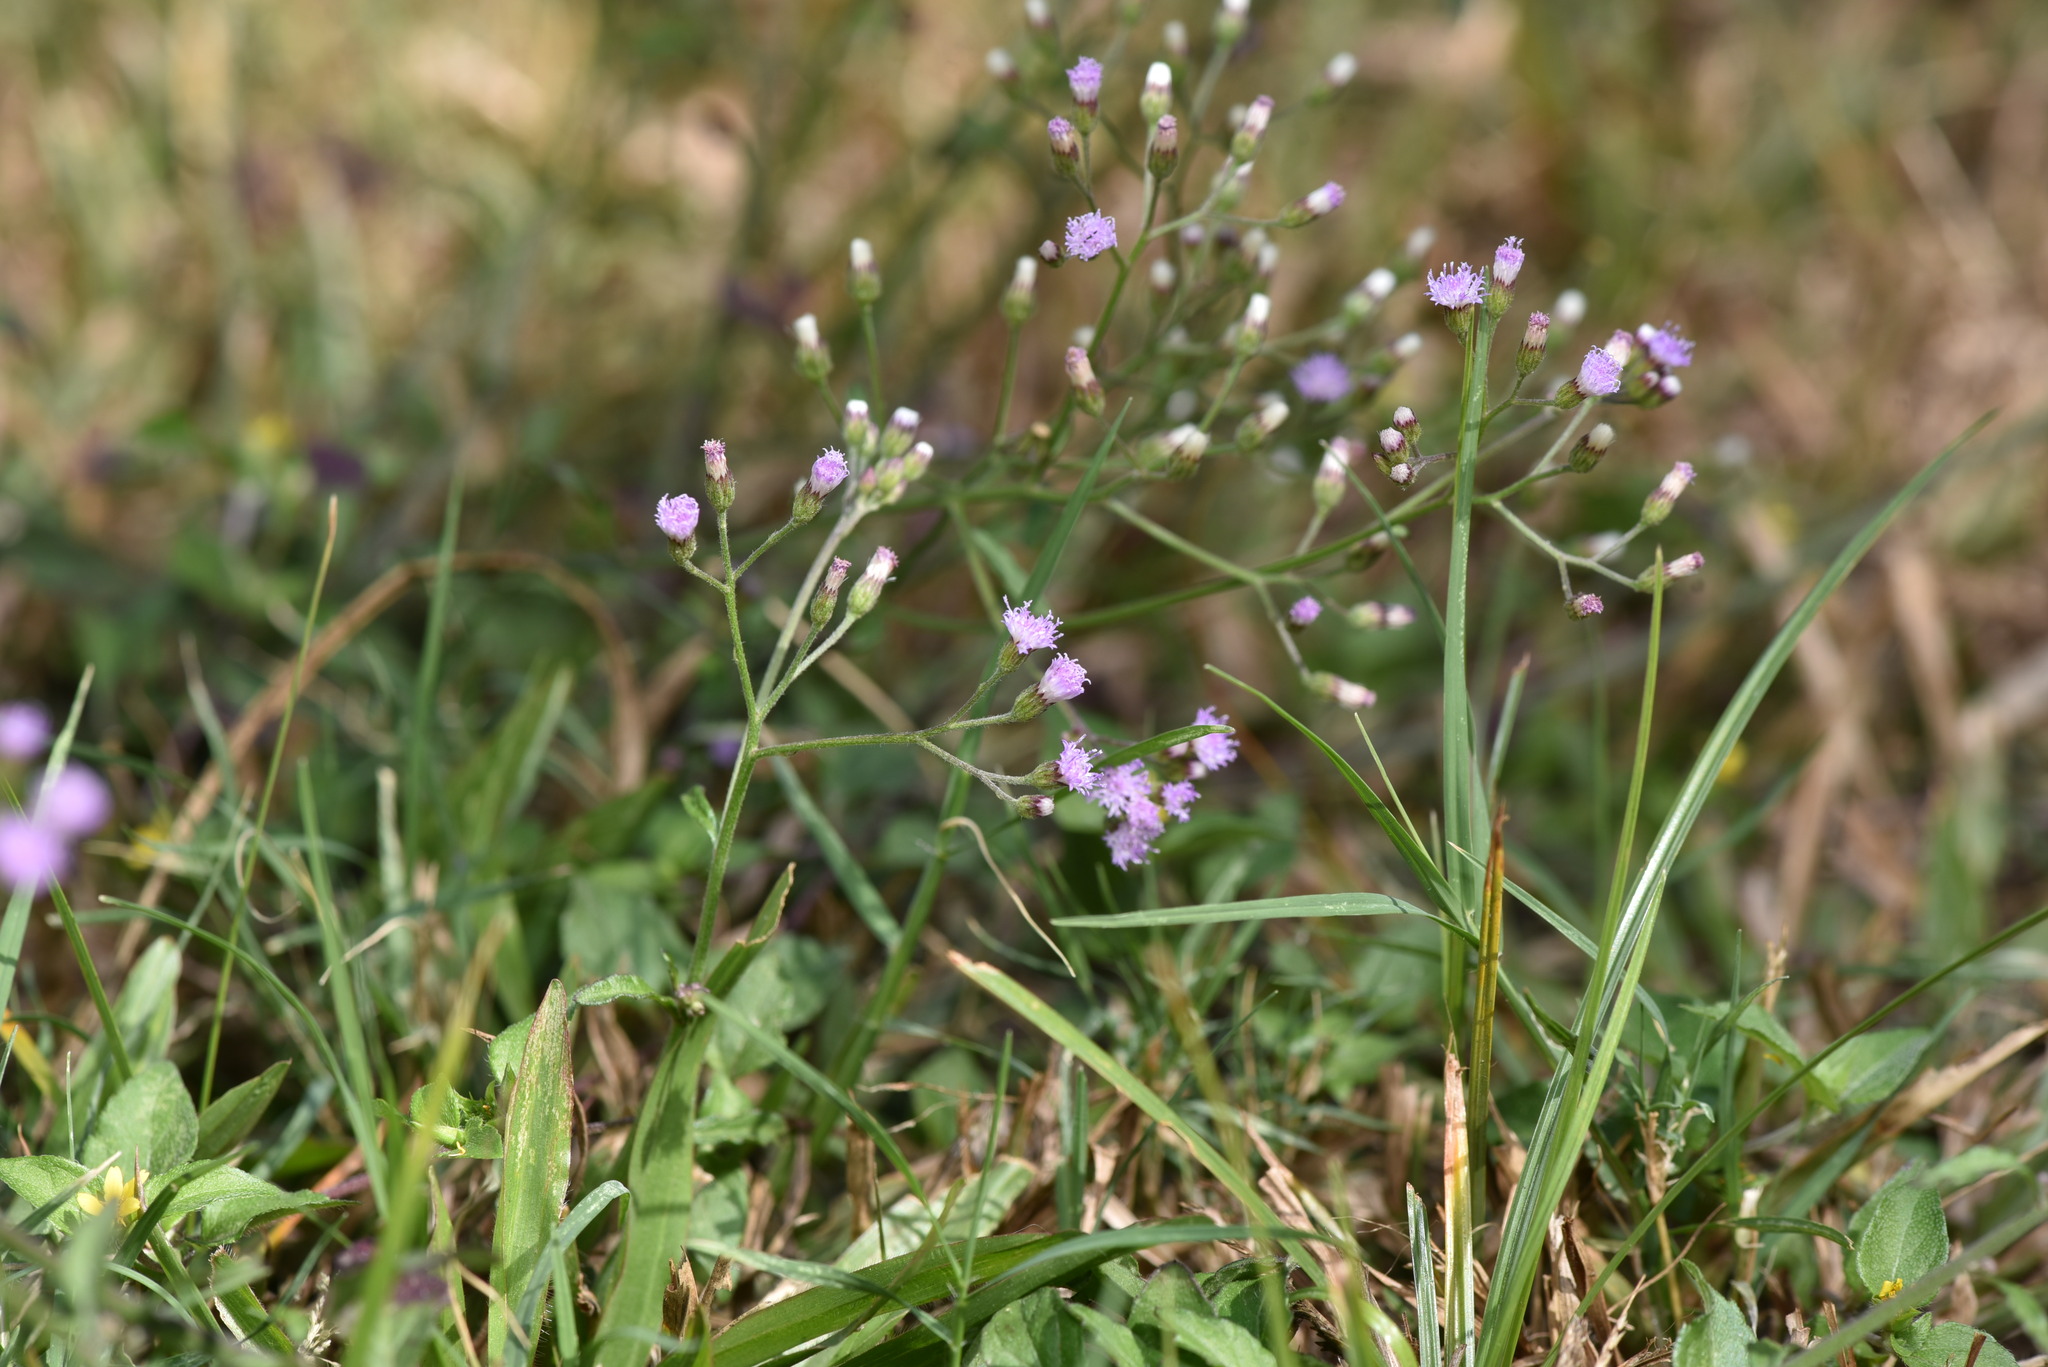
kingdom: Plantae
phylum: Tracheophyta
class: Magnoliopsida
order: Asterales
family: Asteraceae
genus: Cyanthillium
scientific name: Cyanthillium cinereum
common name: Little ironweed
